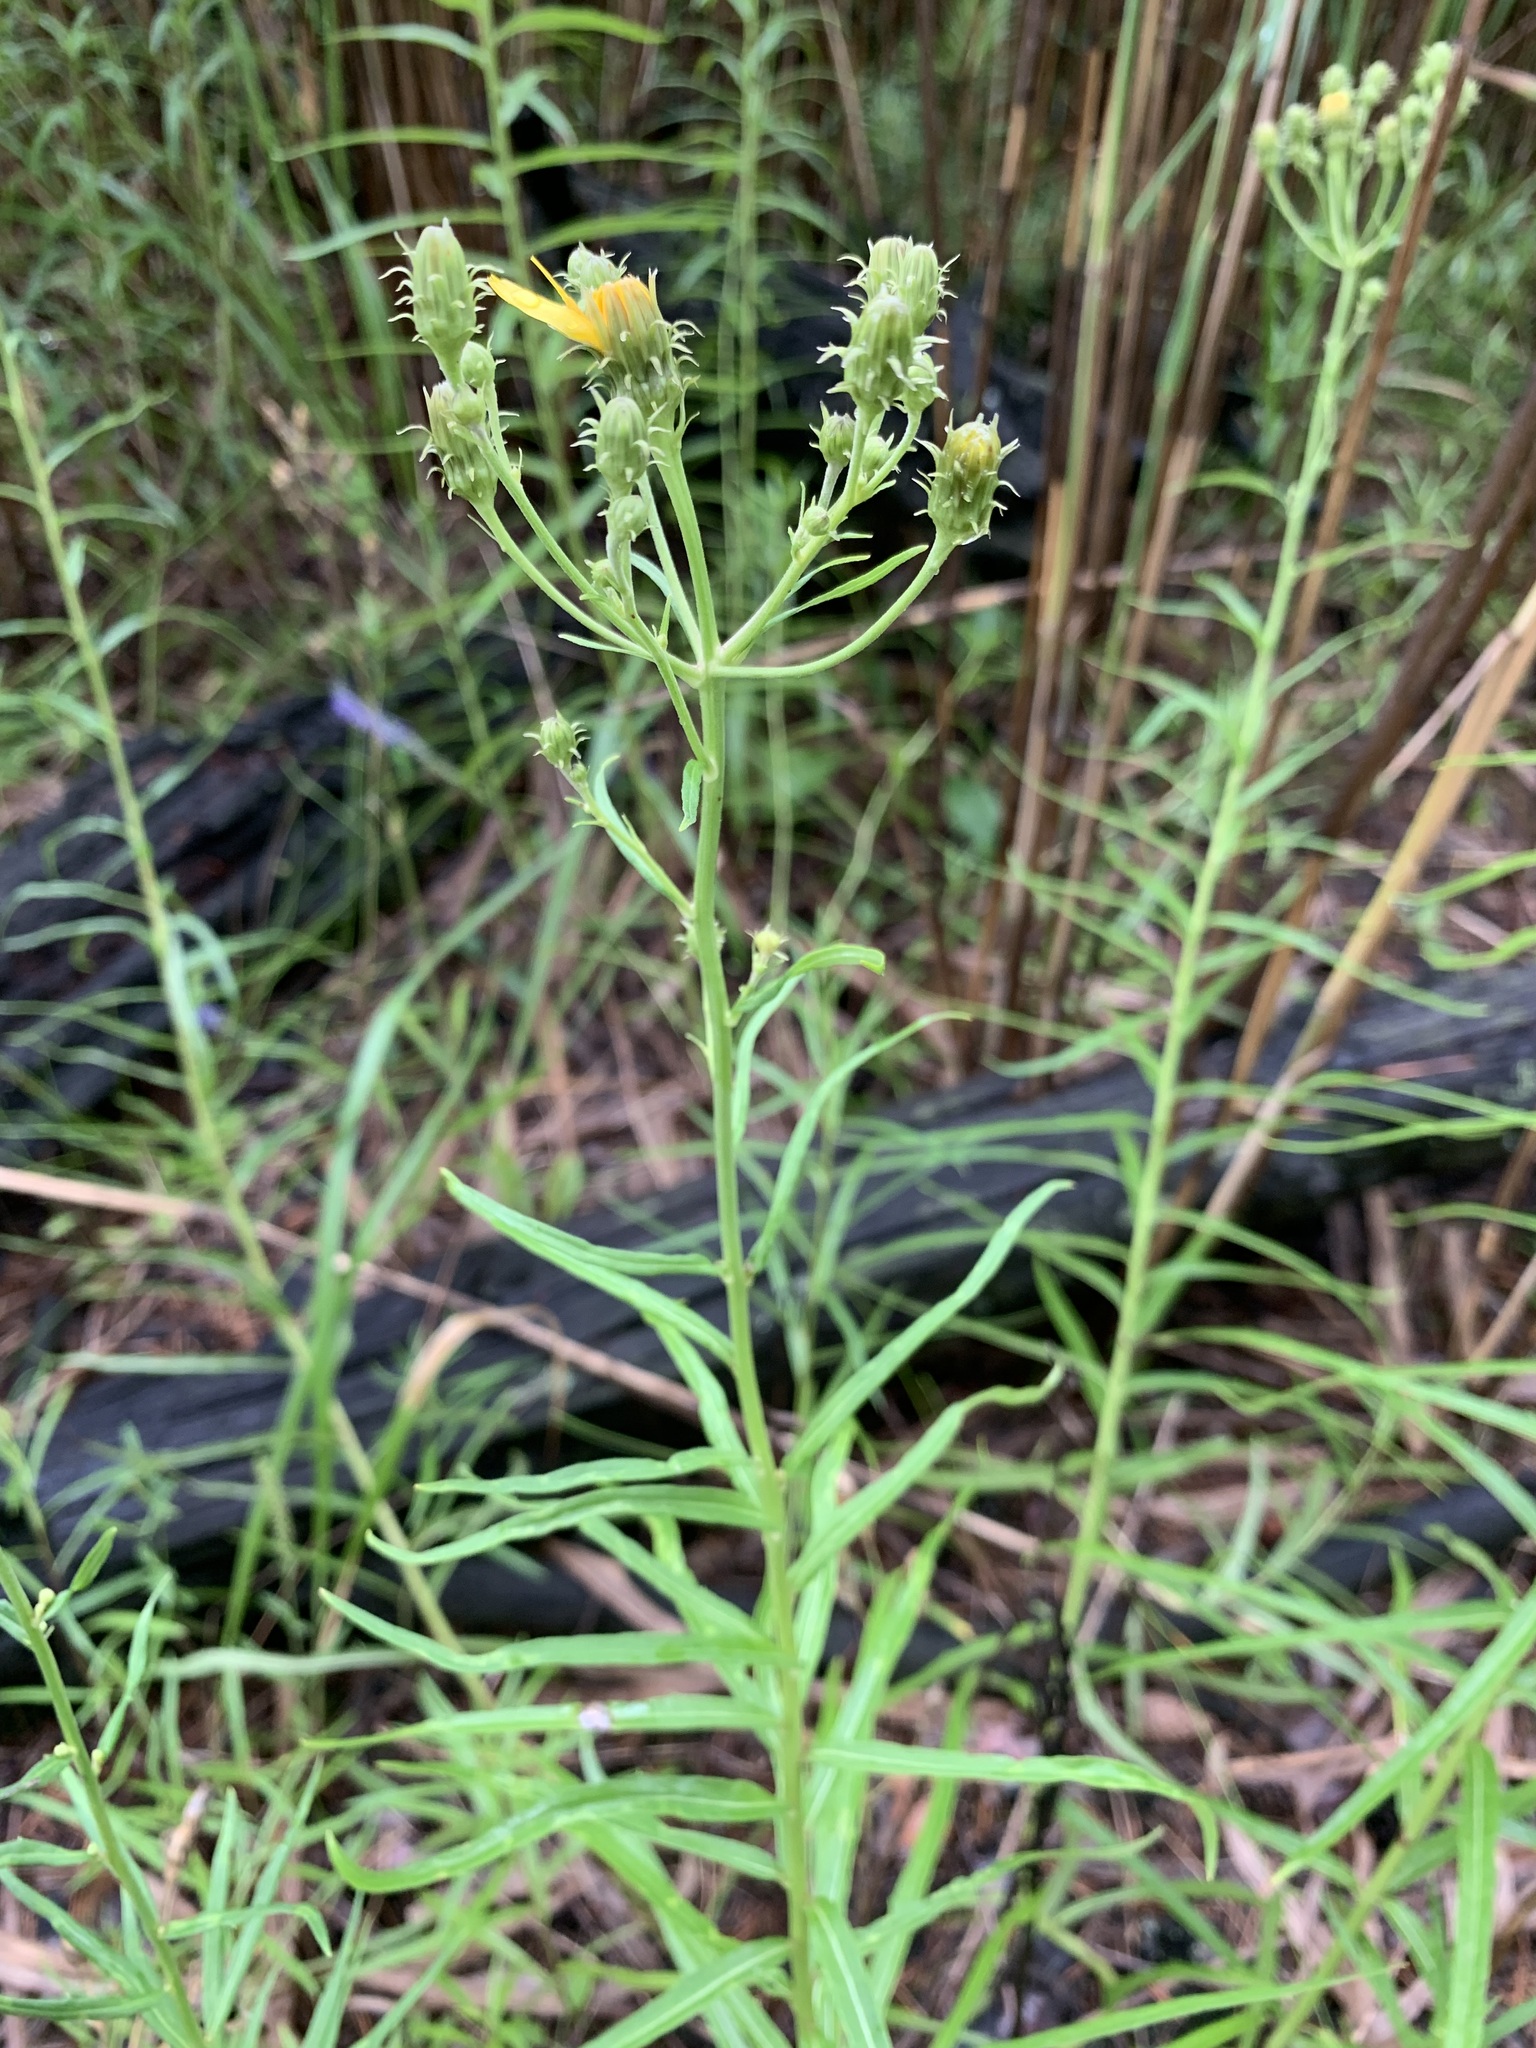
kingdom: Plantae
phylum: Tracheophyta
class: Magnoliopsida
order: Asterales
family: Asteraceae
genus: Hieracium
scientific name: Hieracium umbellatum
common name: Northern hawkweed
